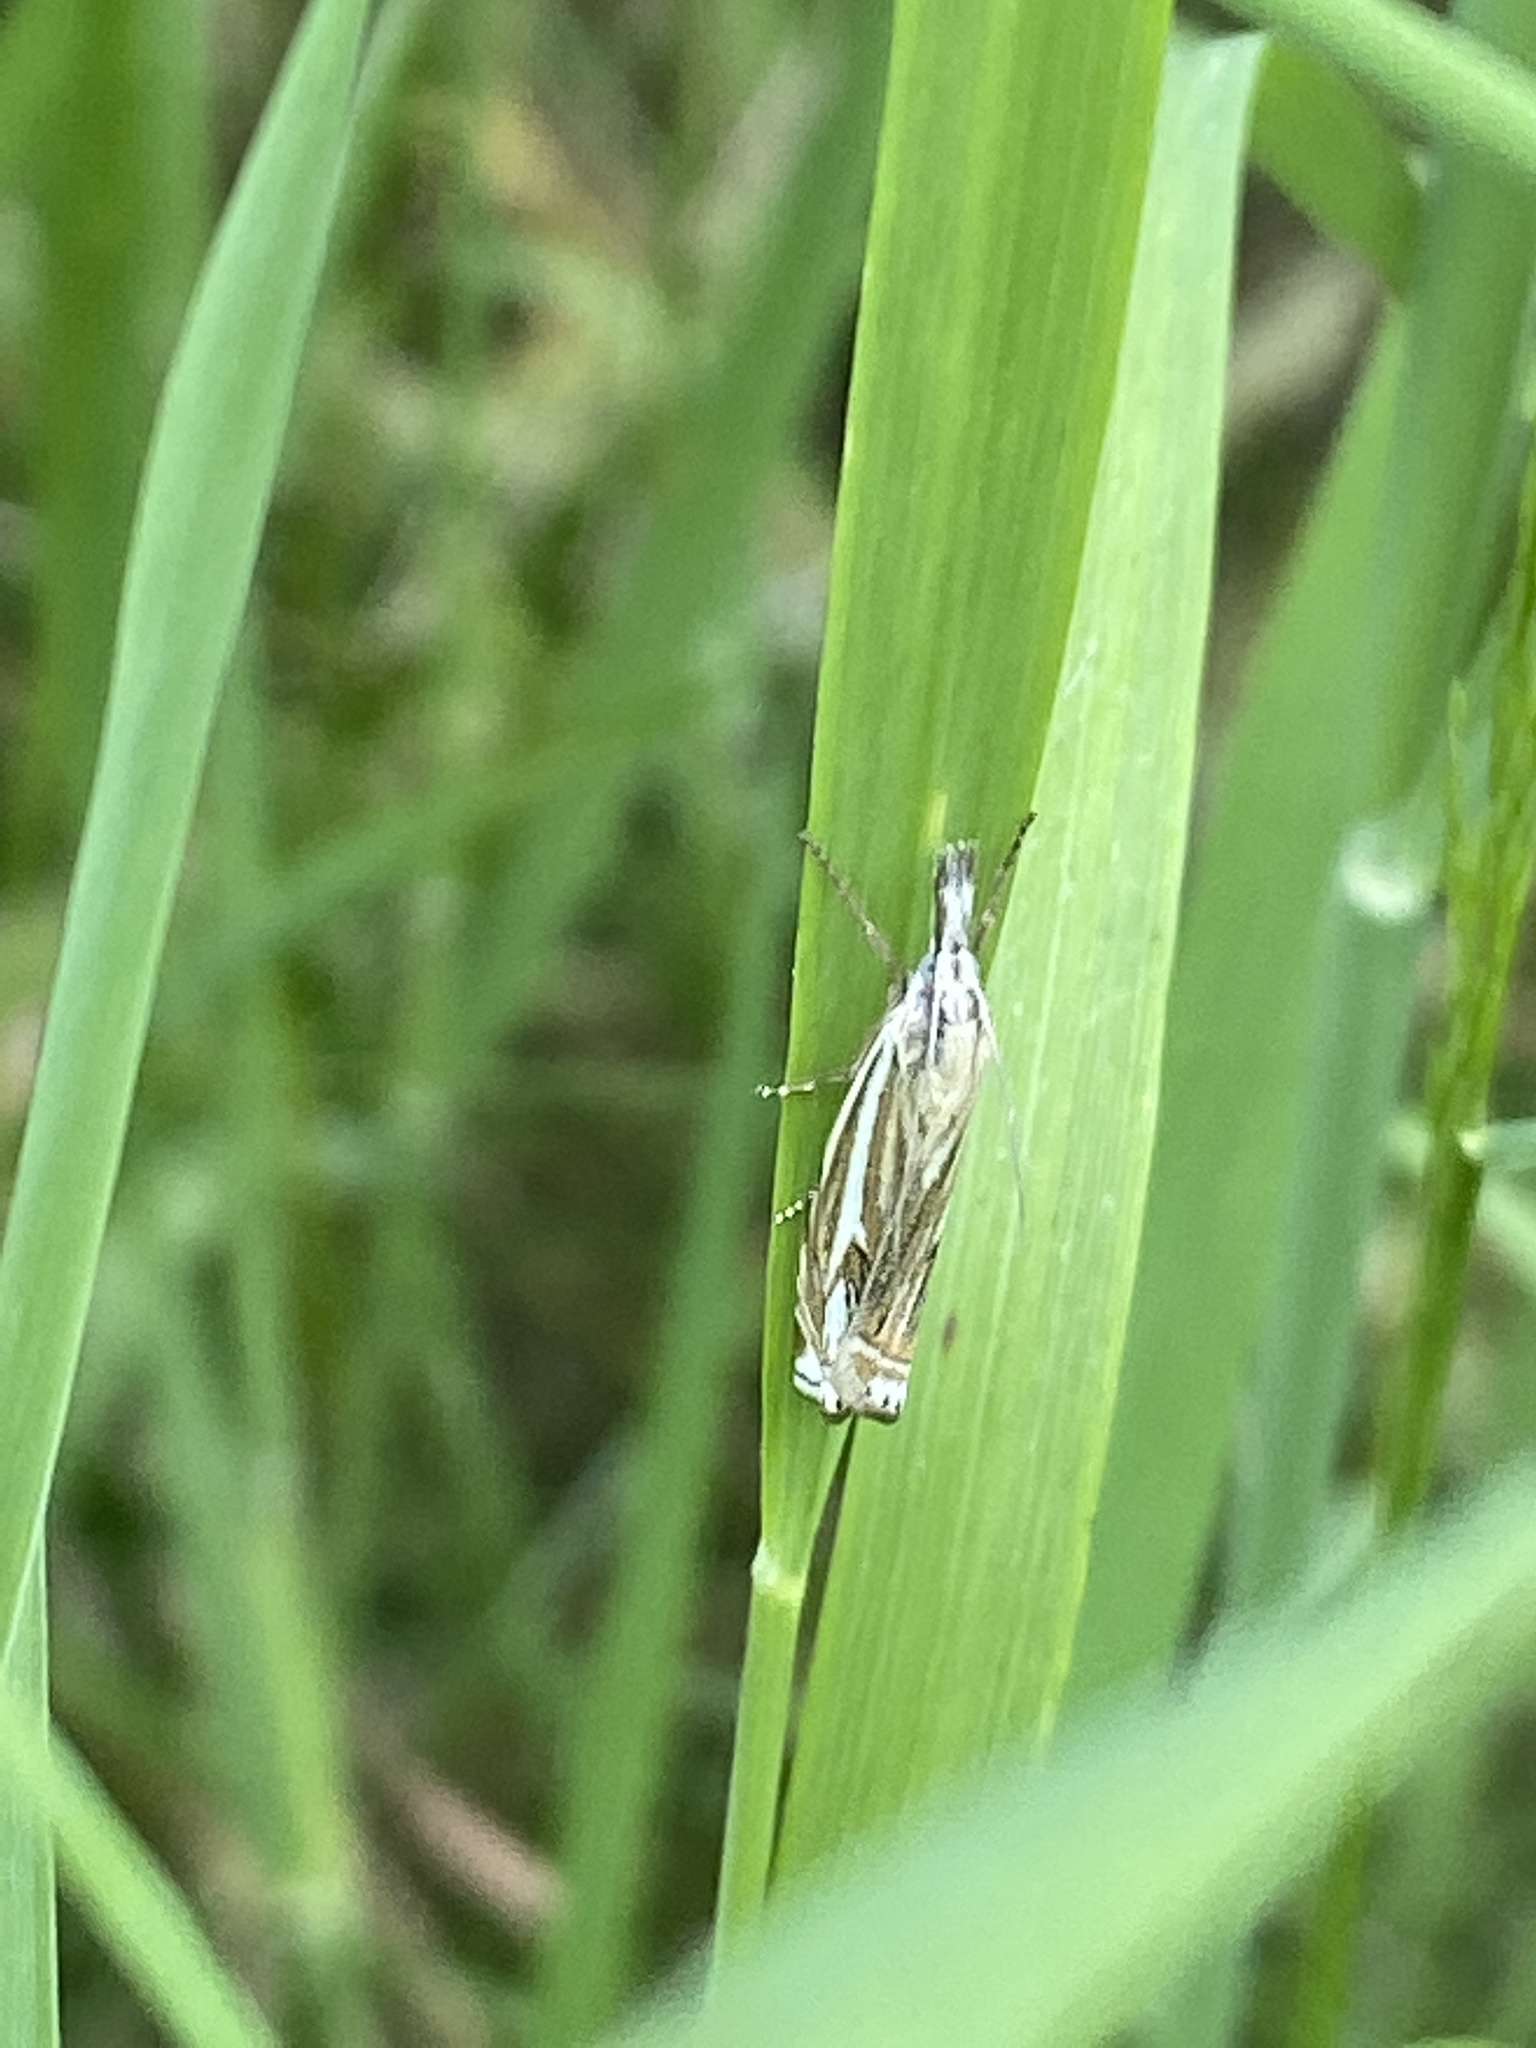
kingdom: Animalia
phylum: Arthropoda
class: Insecta
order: Lepidoptera
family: Crambidae
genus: Crambus
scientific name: Crambus nemorella
